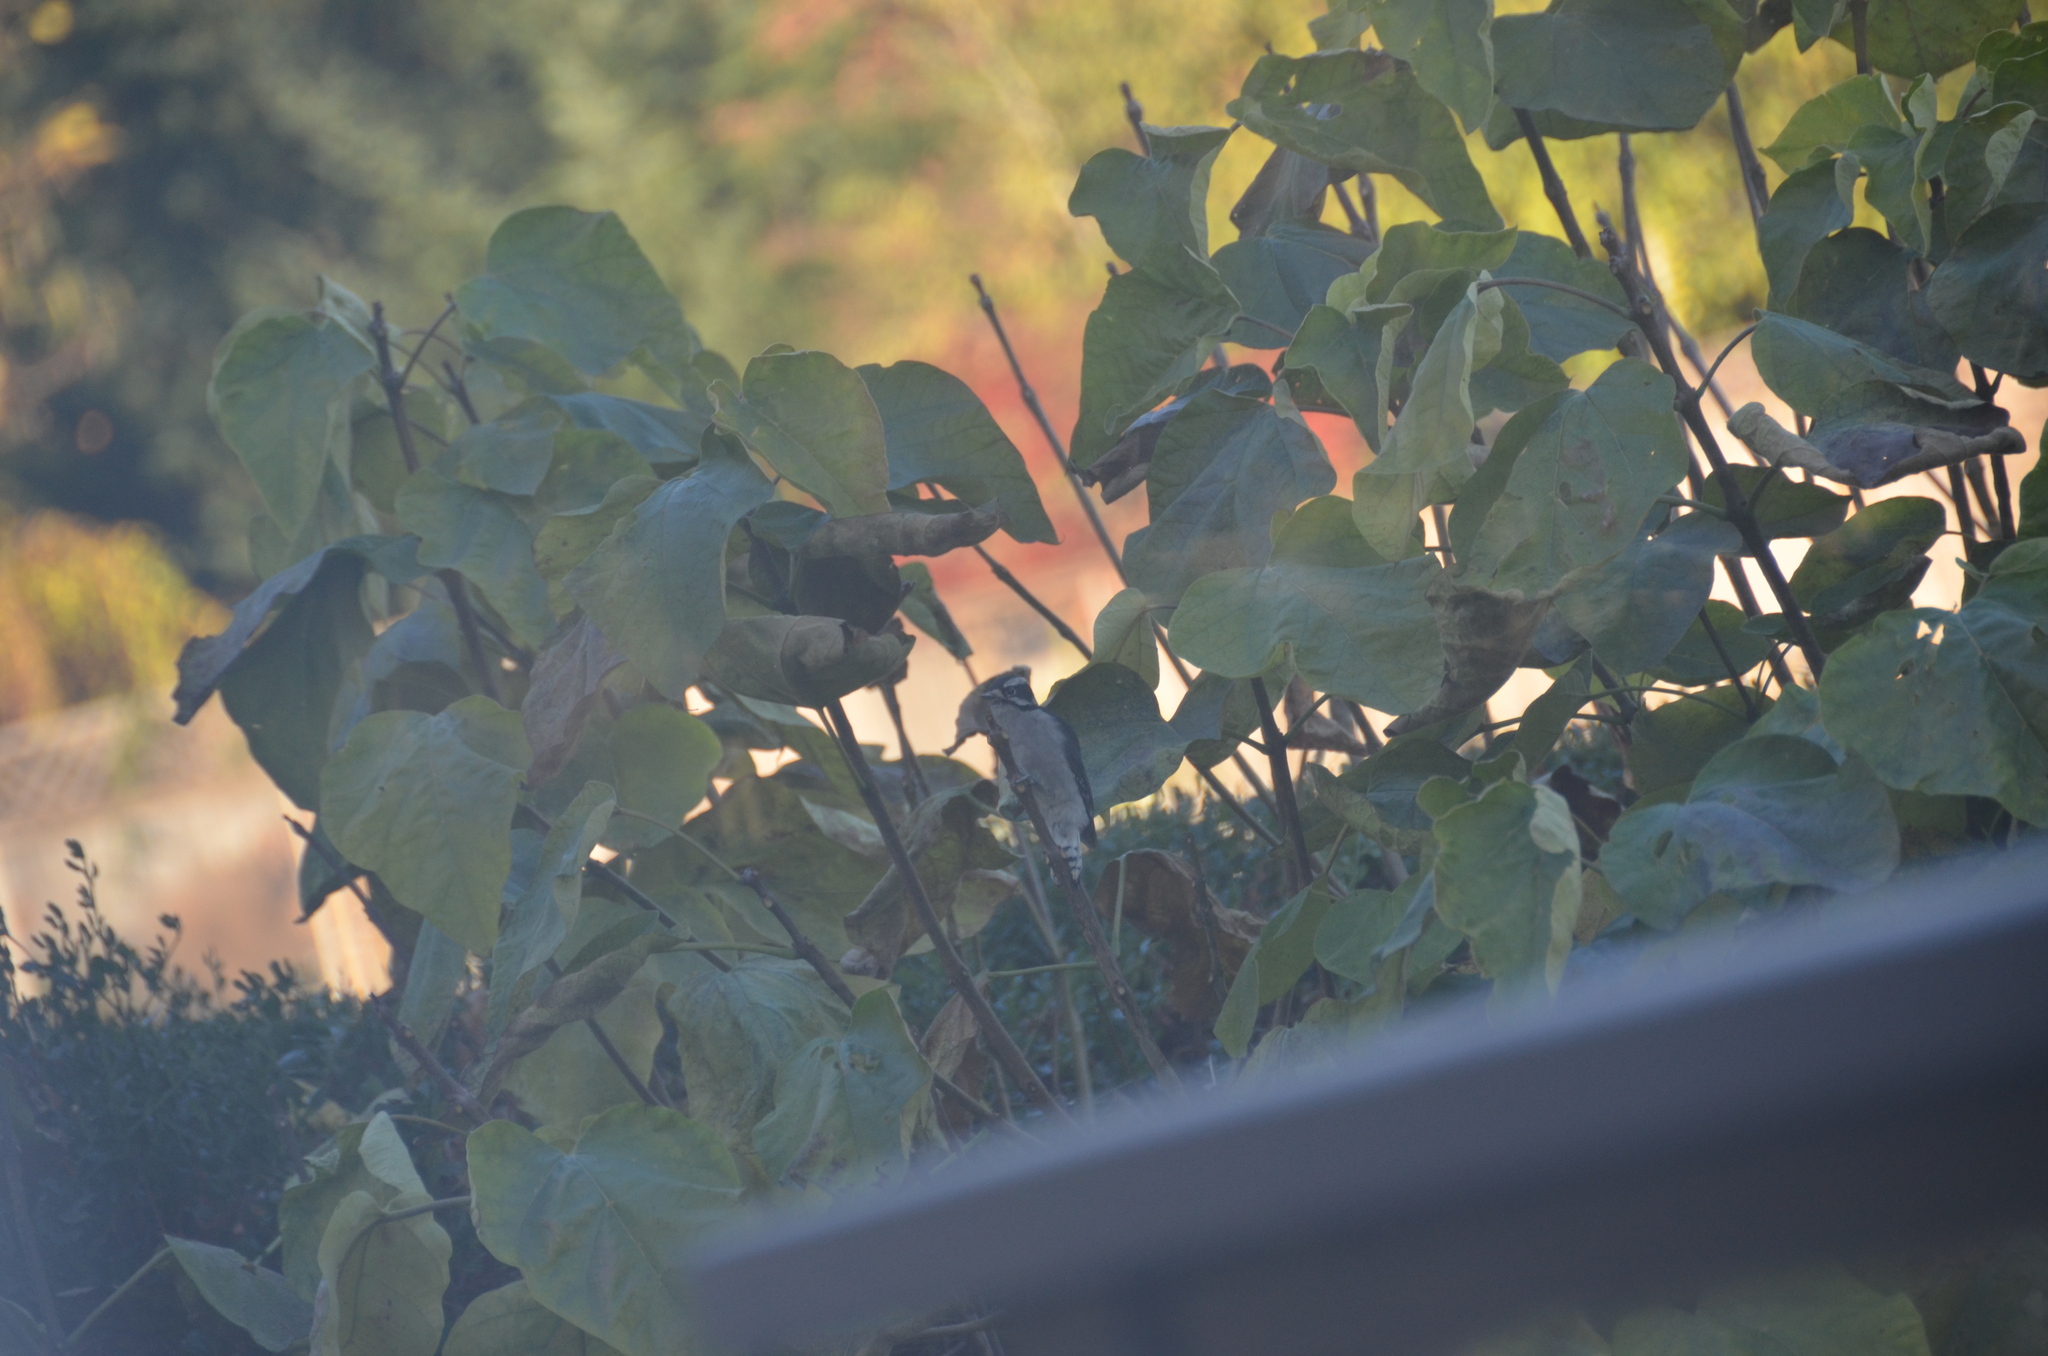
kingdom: Animalia
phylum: Chordata
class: Aves
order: Piciformes
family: Picidae
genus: Dryobates
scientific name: Dryobates pubescens
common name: Downy woodpecker
